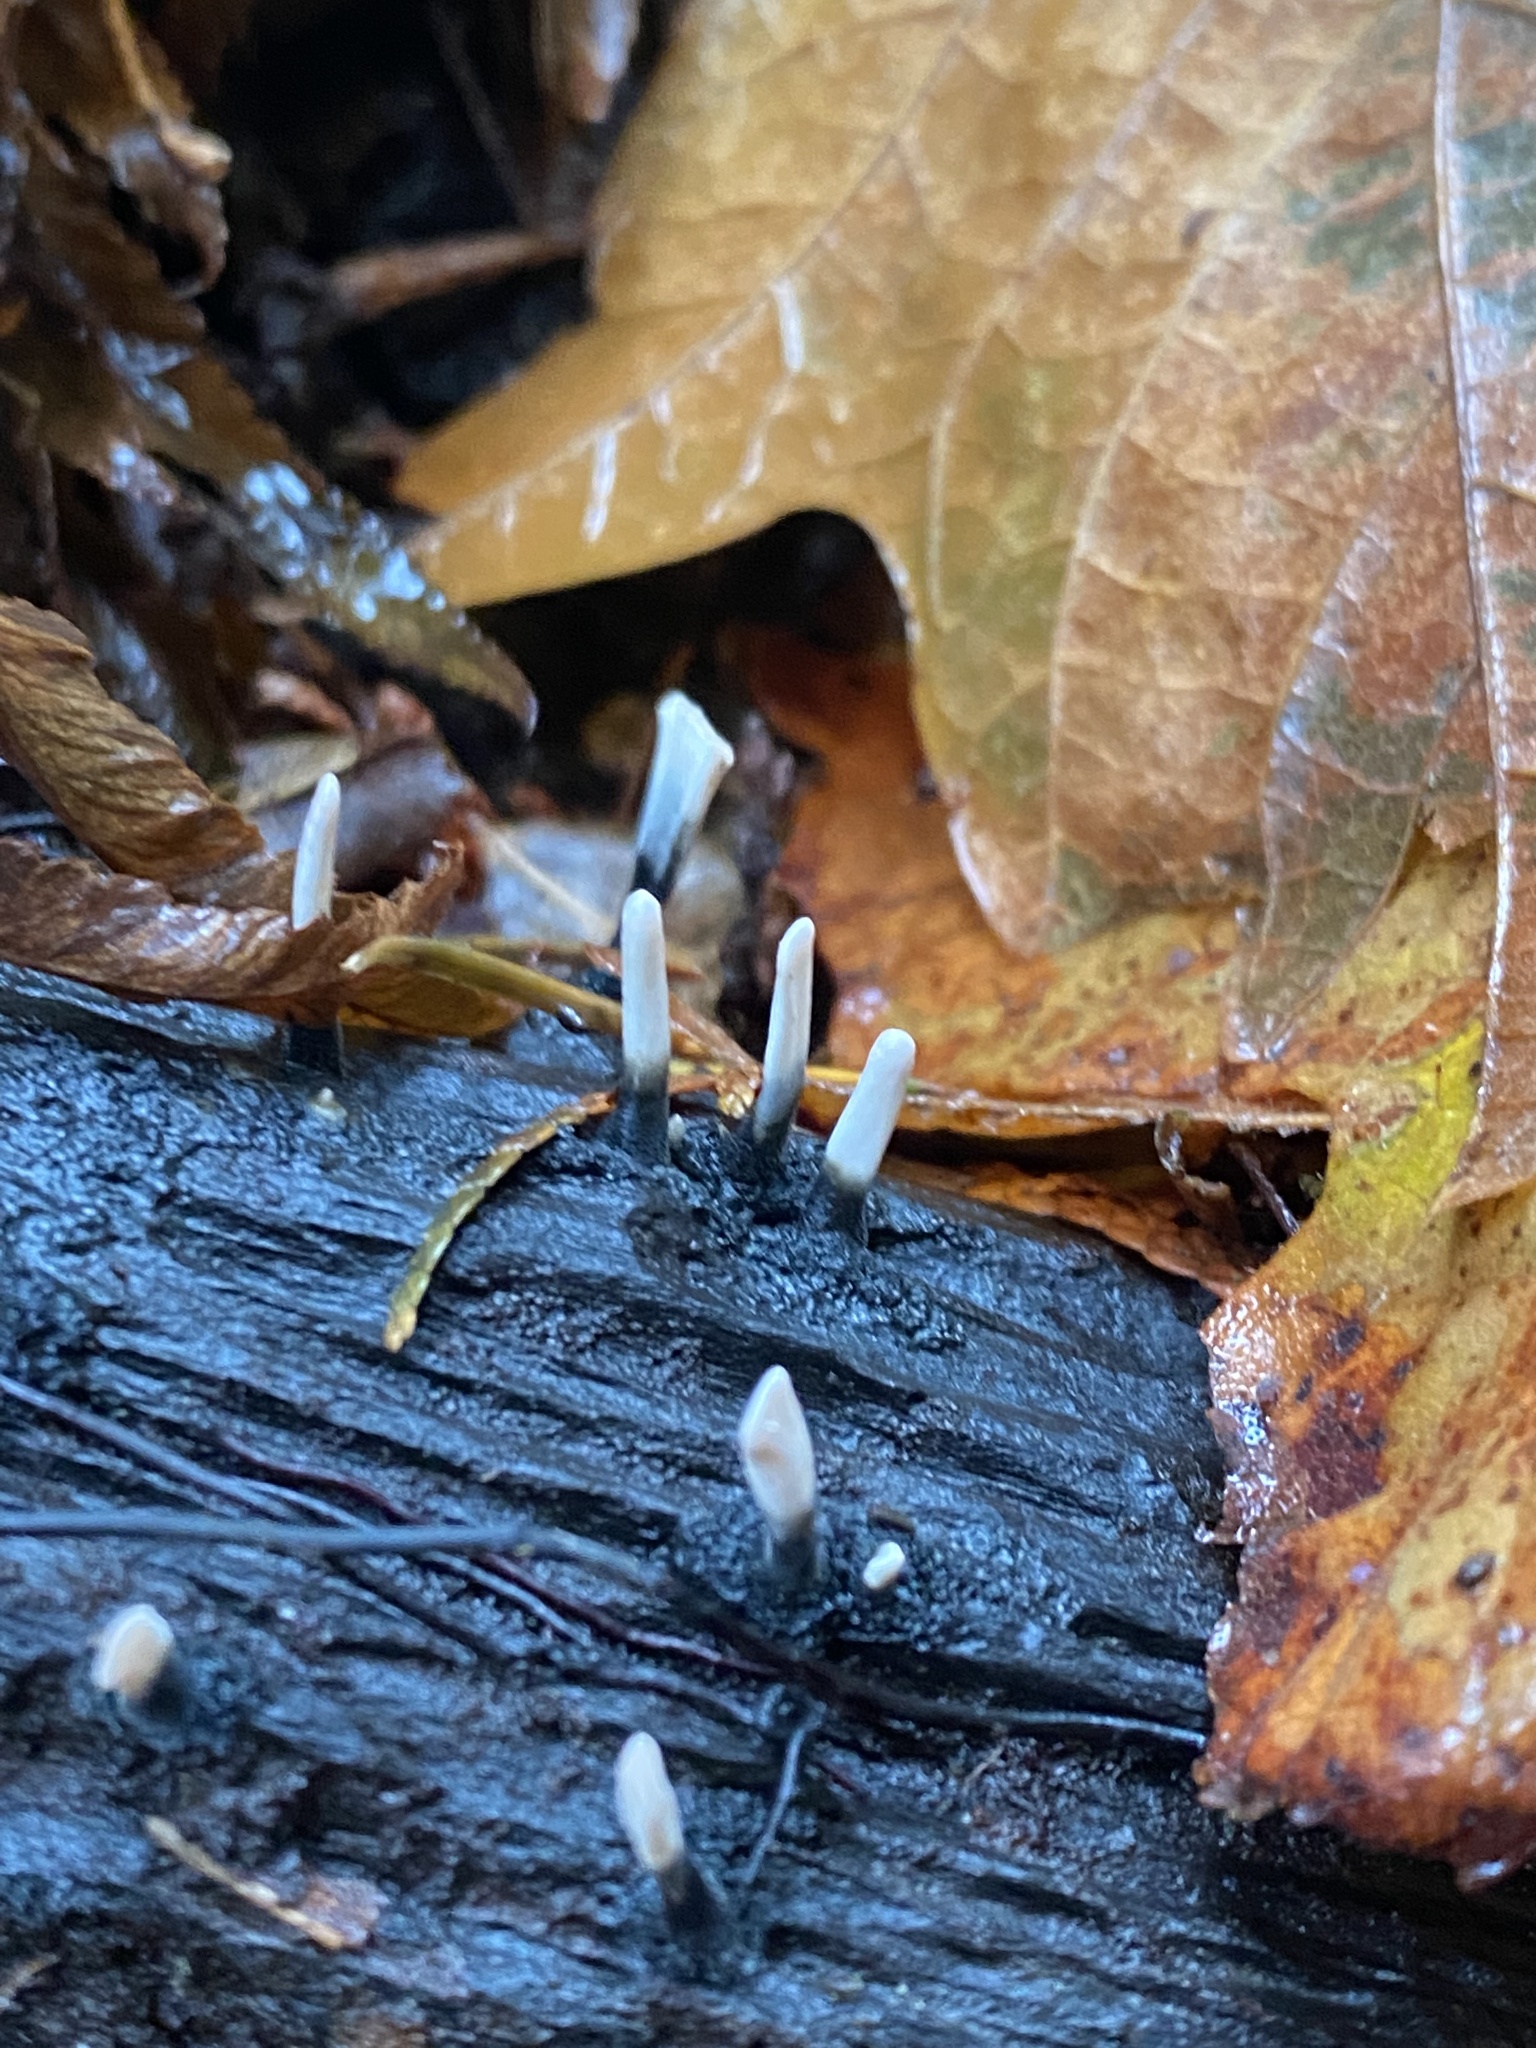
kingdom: Fungi
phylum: Ascomycota
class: Sordariomycetes
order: Xylariales
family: Xylariaceae
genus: Xylaria
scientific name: Xylaria hypoxylon
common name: Candle-snuff fungus
